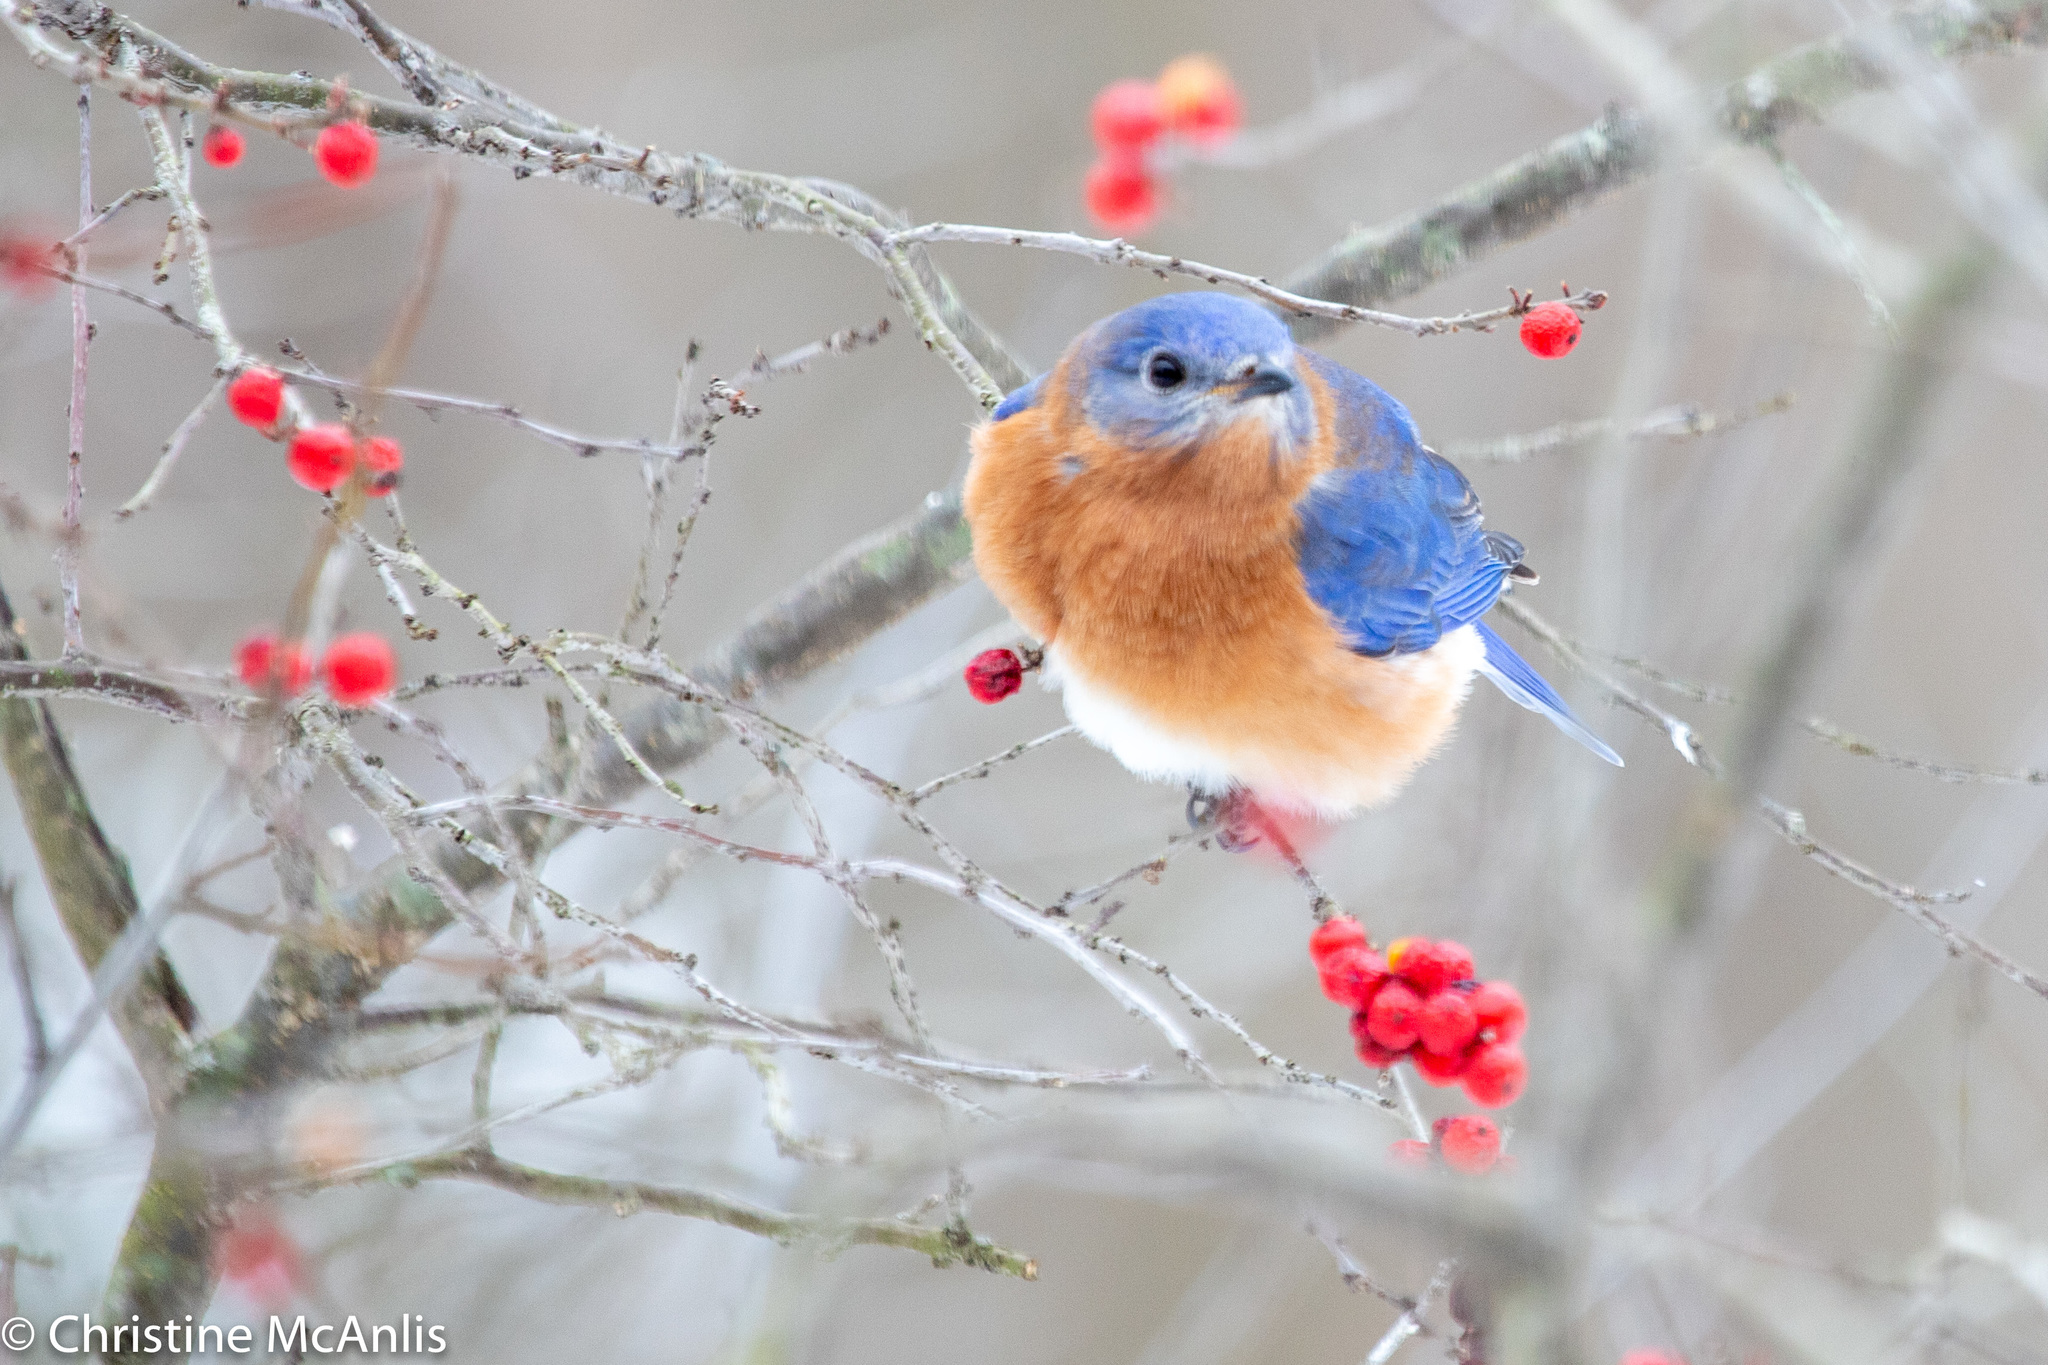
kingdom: Animalia
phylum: Chordata
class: Aves
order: Passeriformes
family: Turdidae
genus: Sialia
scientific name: Sialia sialis
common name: Eastern bluebird
